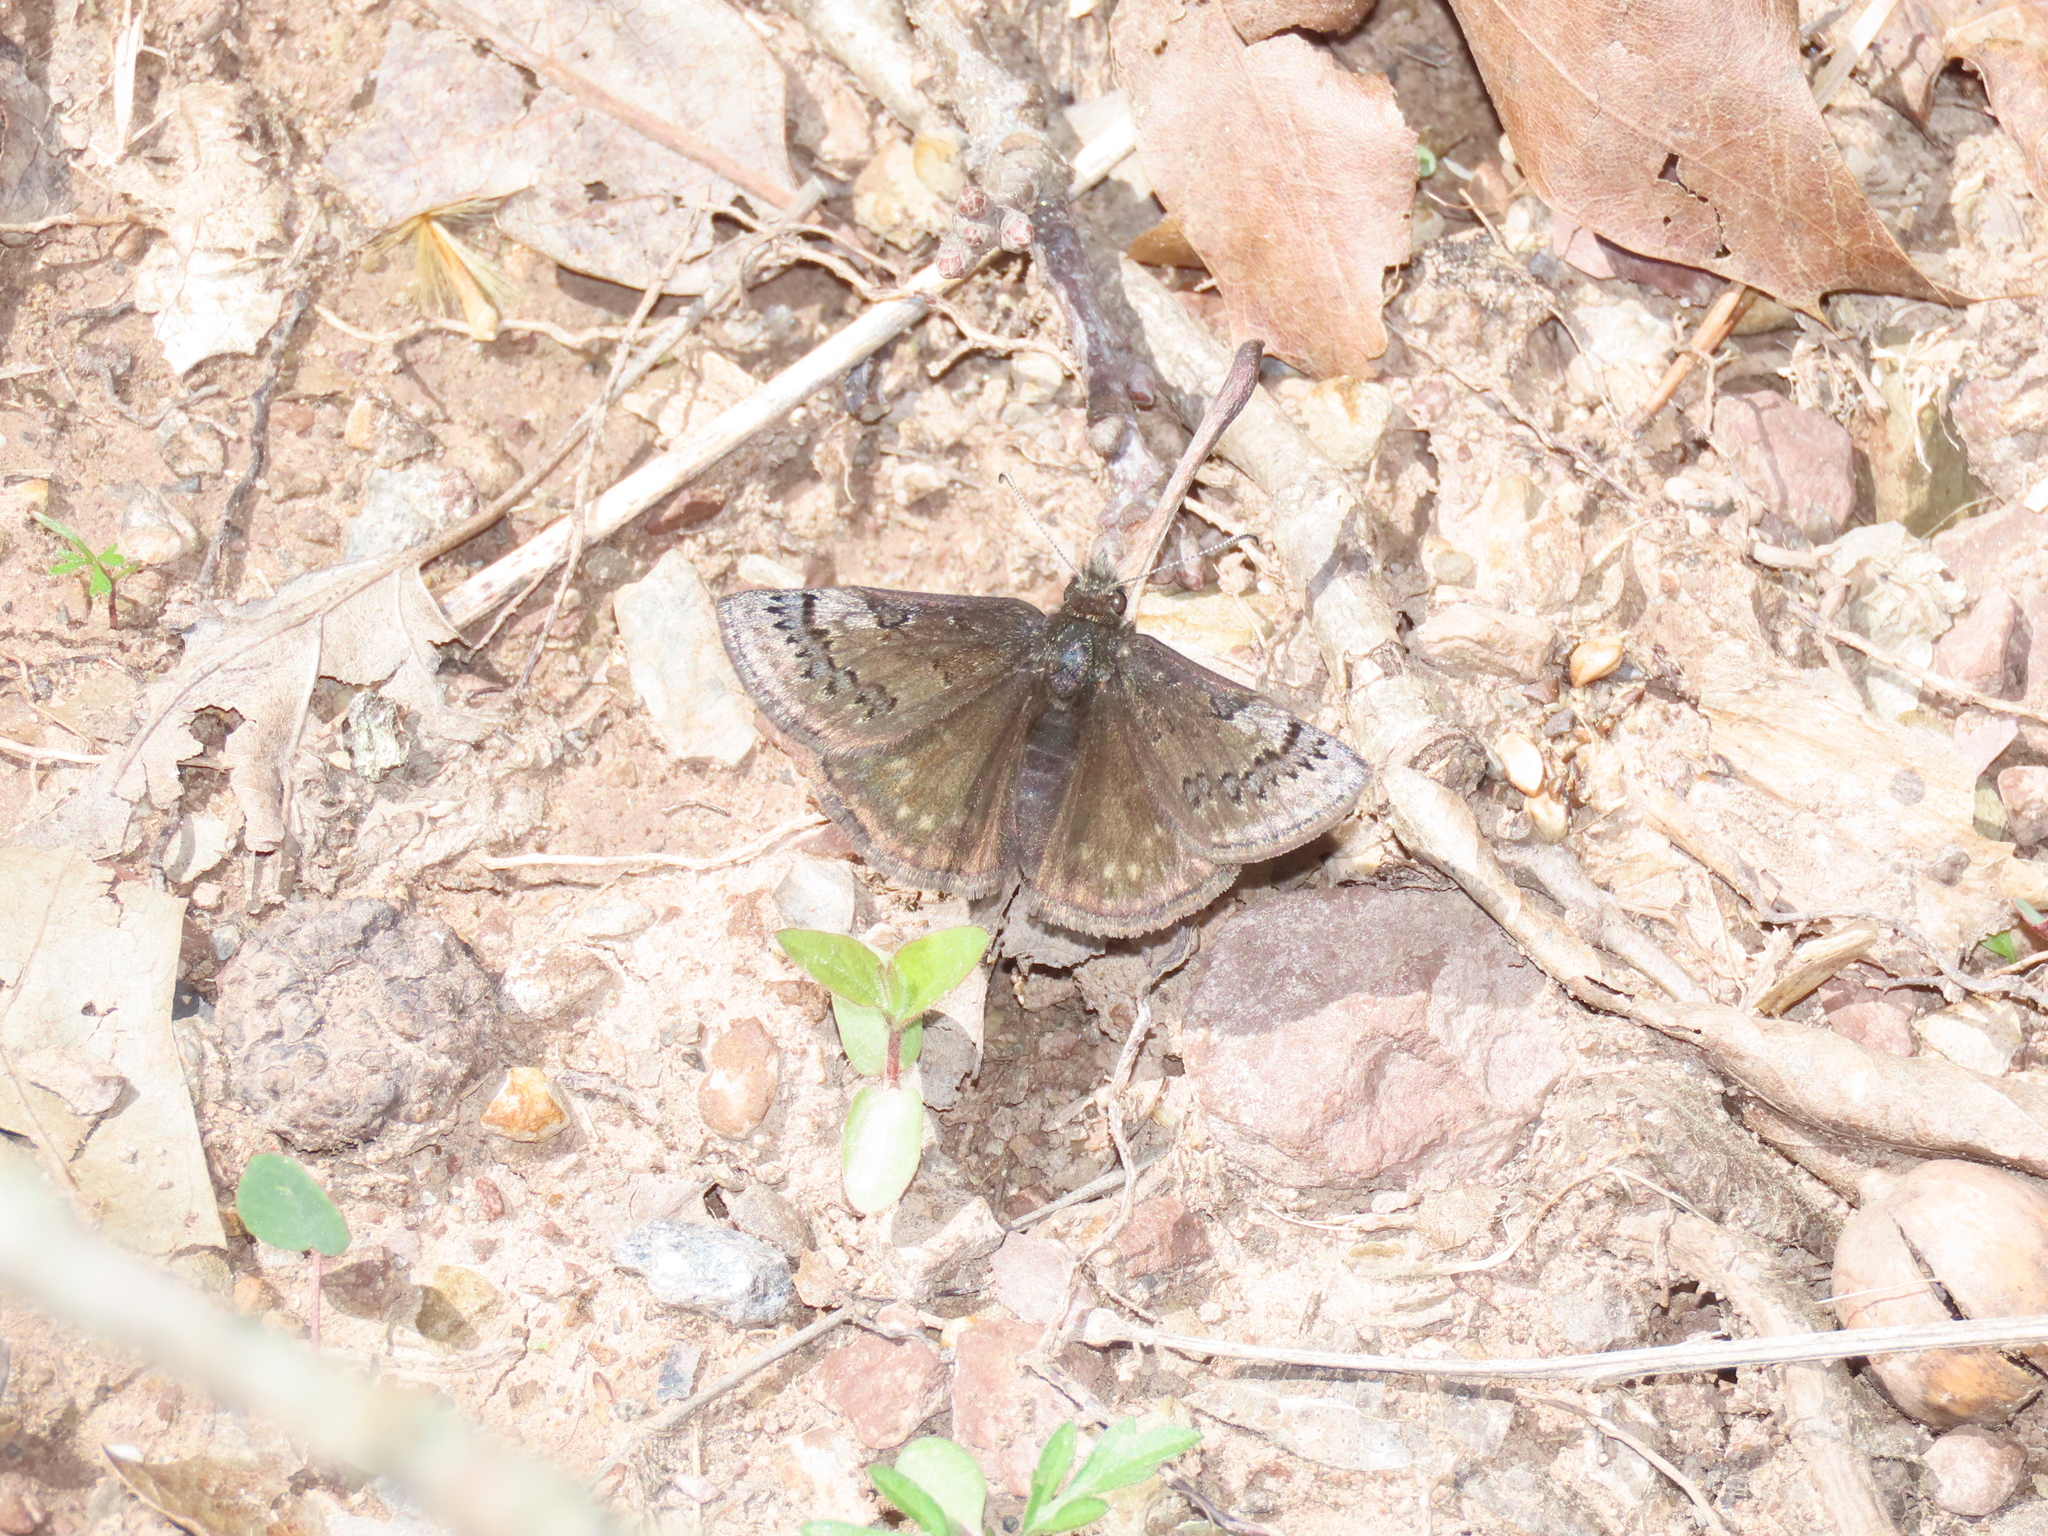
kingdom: Animalia
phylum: Arthropoda
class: Insecta
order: Lepidoptera
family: Hesperiidae
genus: Erynnis
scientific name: Erynnis brizo
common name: Sleepy duskywing
